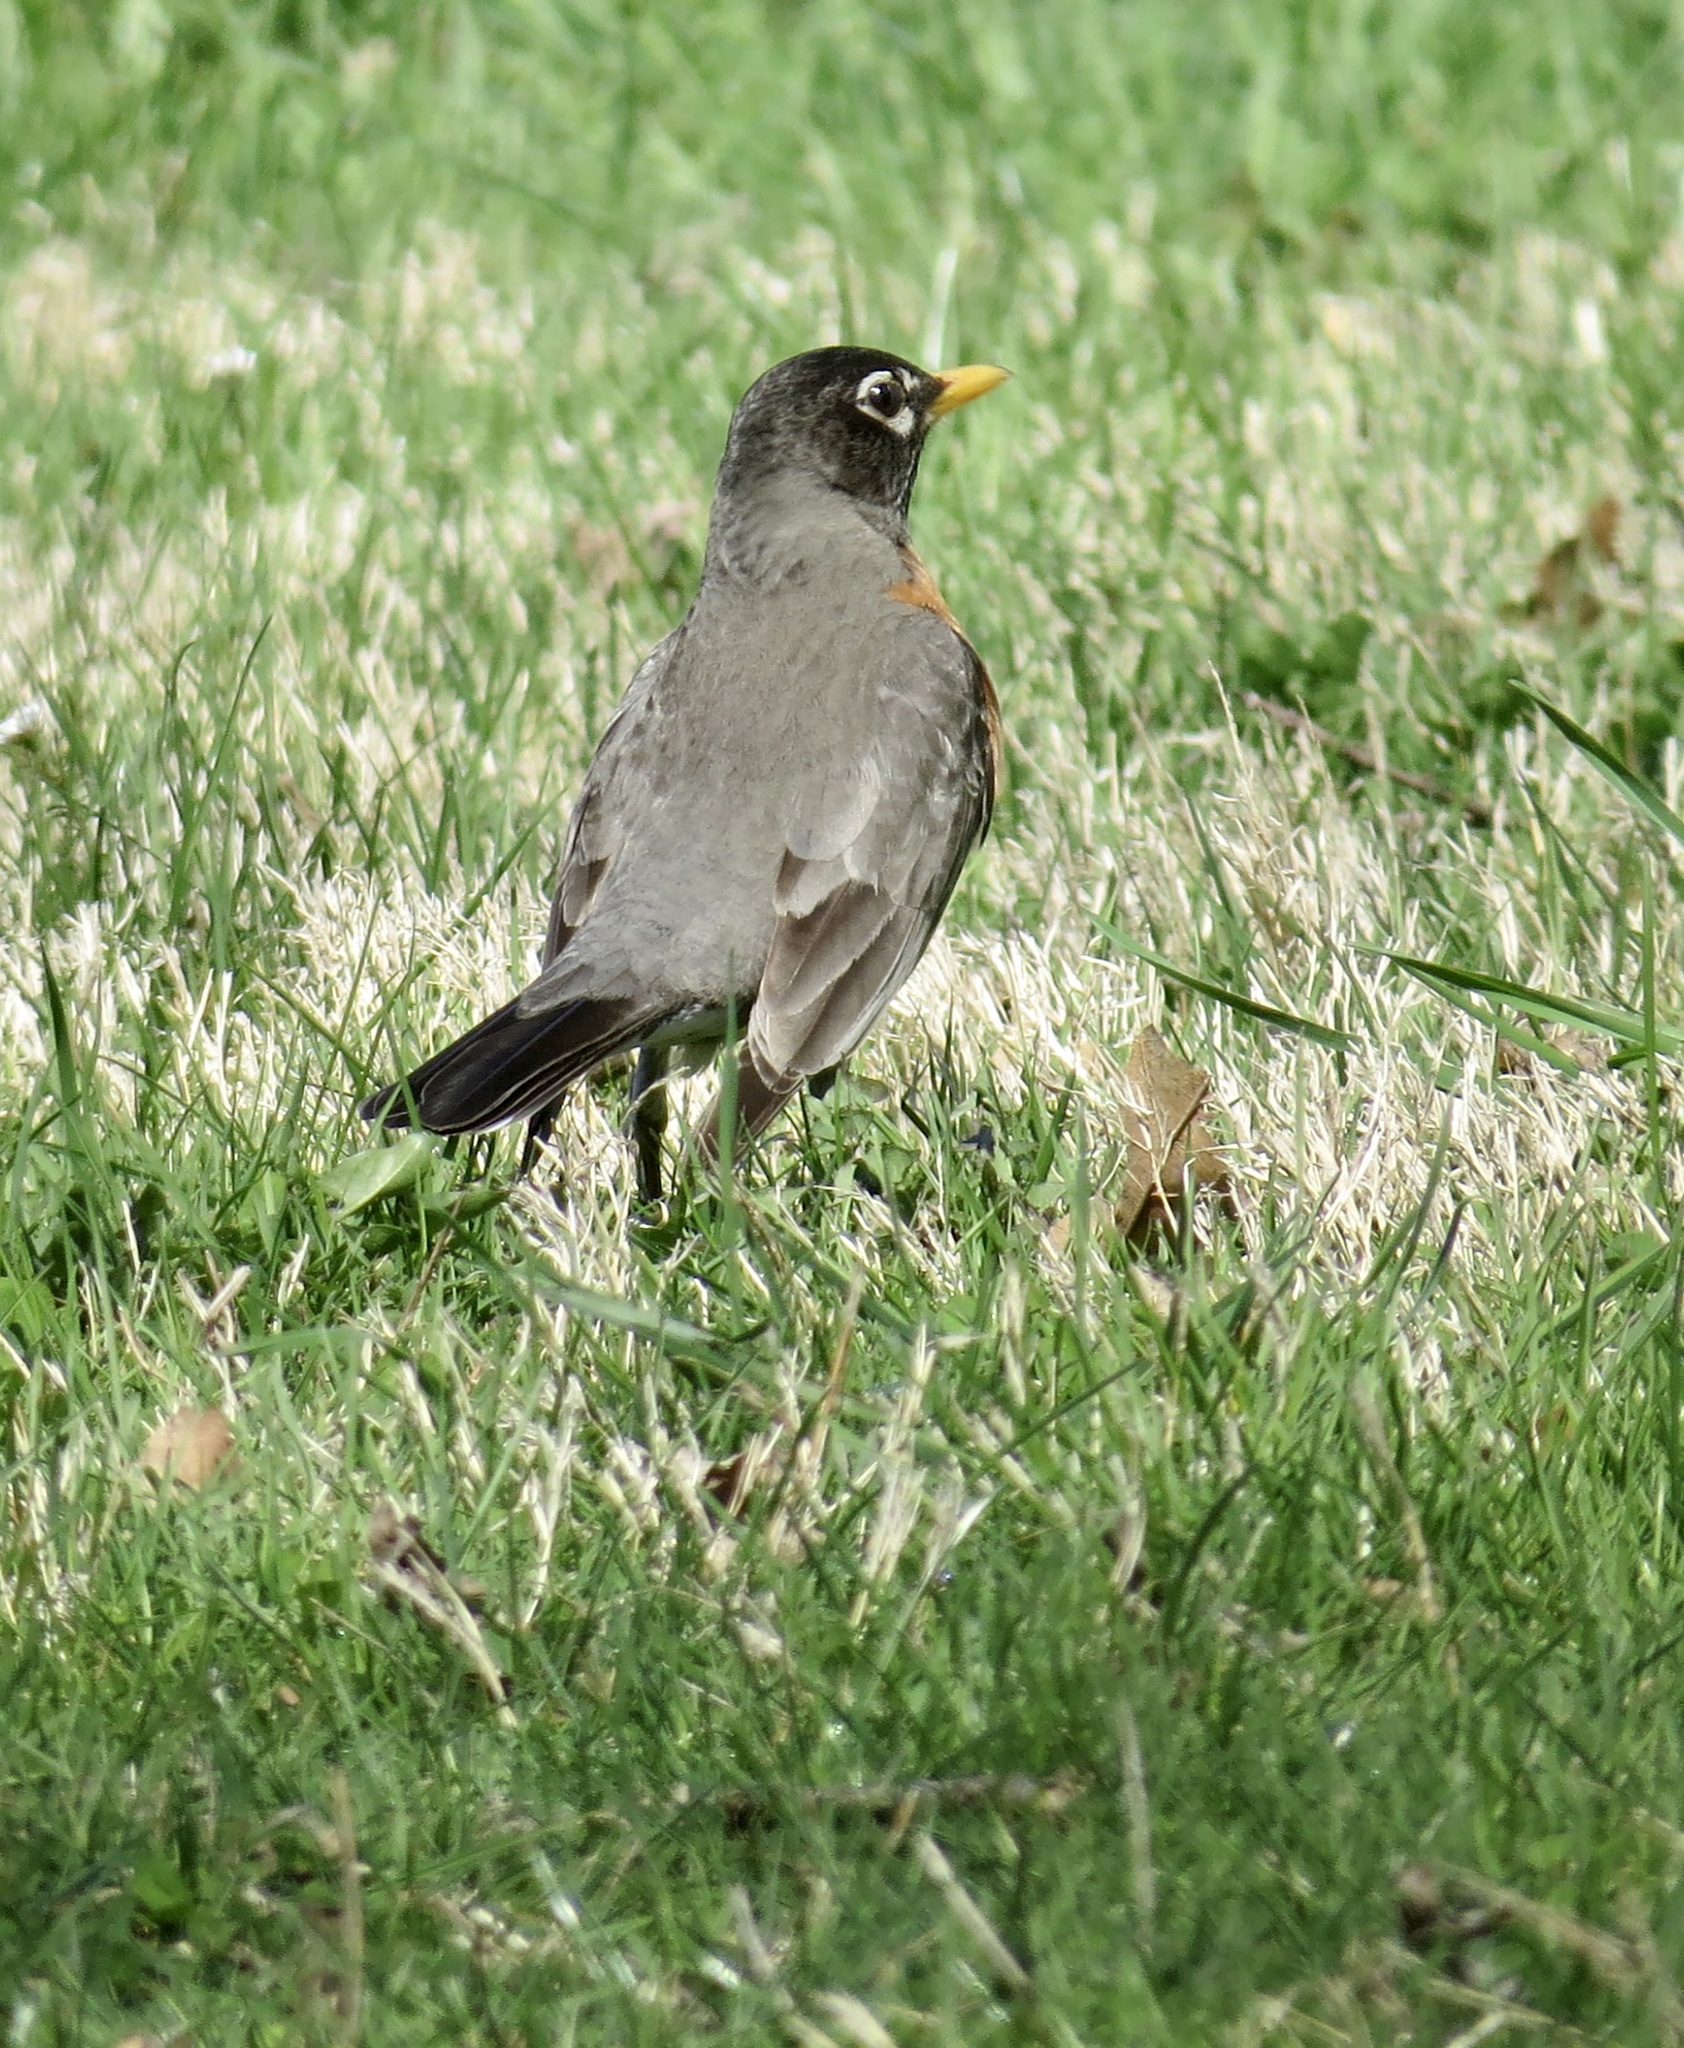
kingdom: Animalia
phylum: Chordata
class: Aves
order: Passeriformes
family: Turdidae
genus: Turdus
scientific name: Turdus migratorius
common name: American robin
